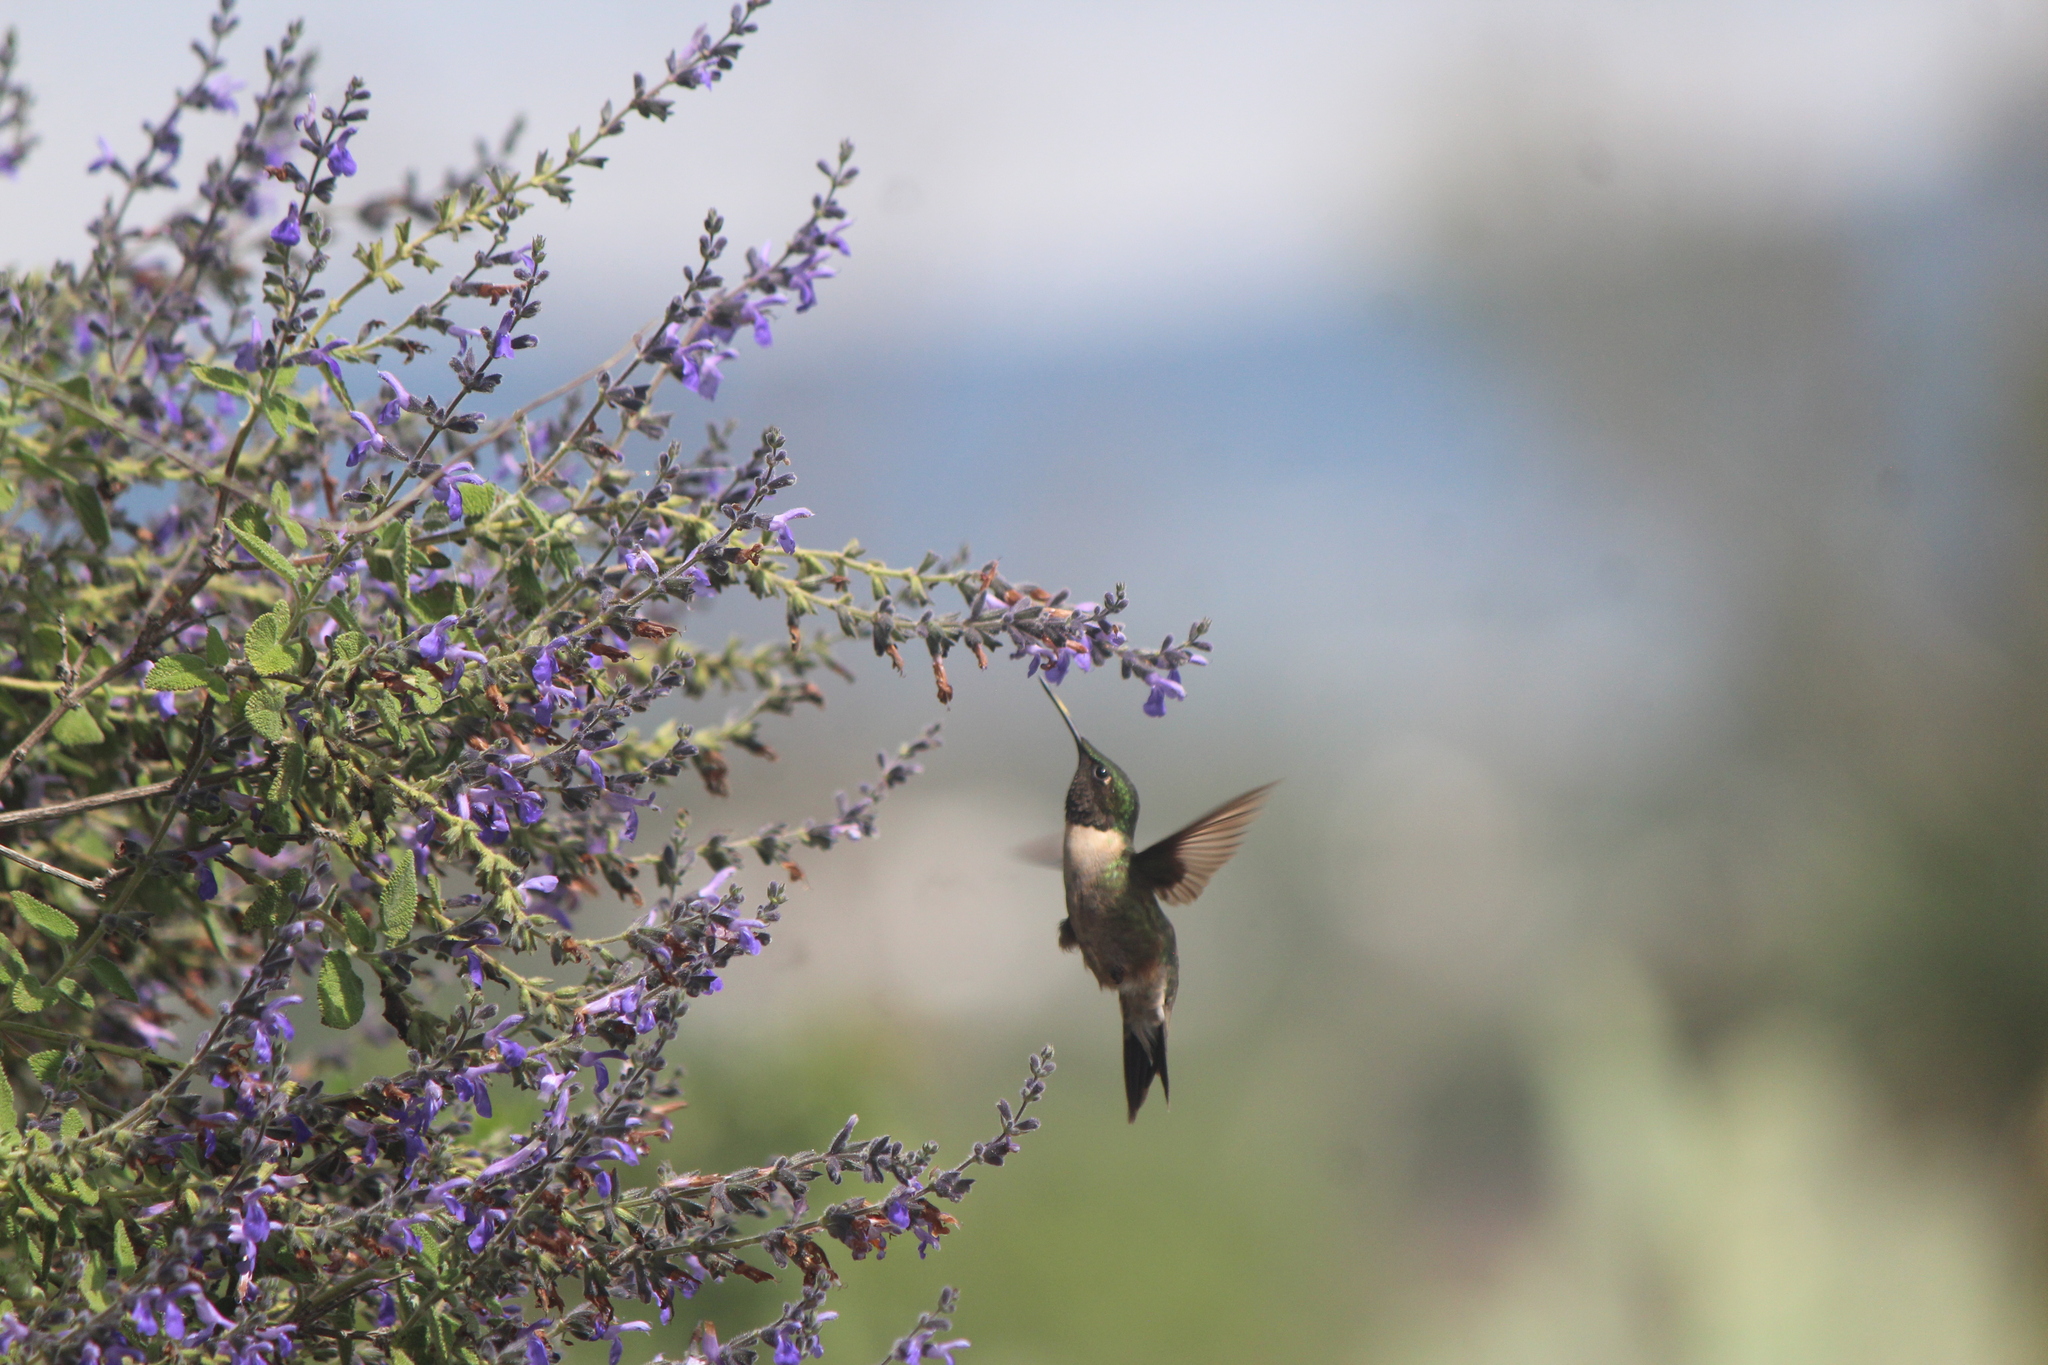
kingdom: Animalia
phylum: Chordata
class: Aves
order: Apodiformes
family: Trochilidae
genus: Archilochus
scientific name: Archilochus colubris
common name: Ruby-throated hummingbird
